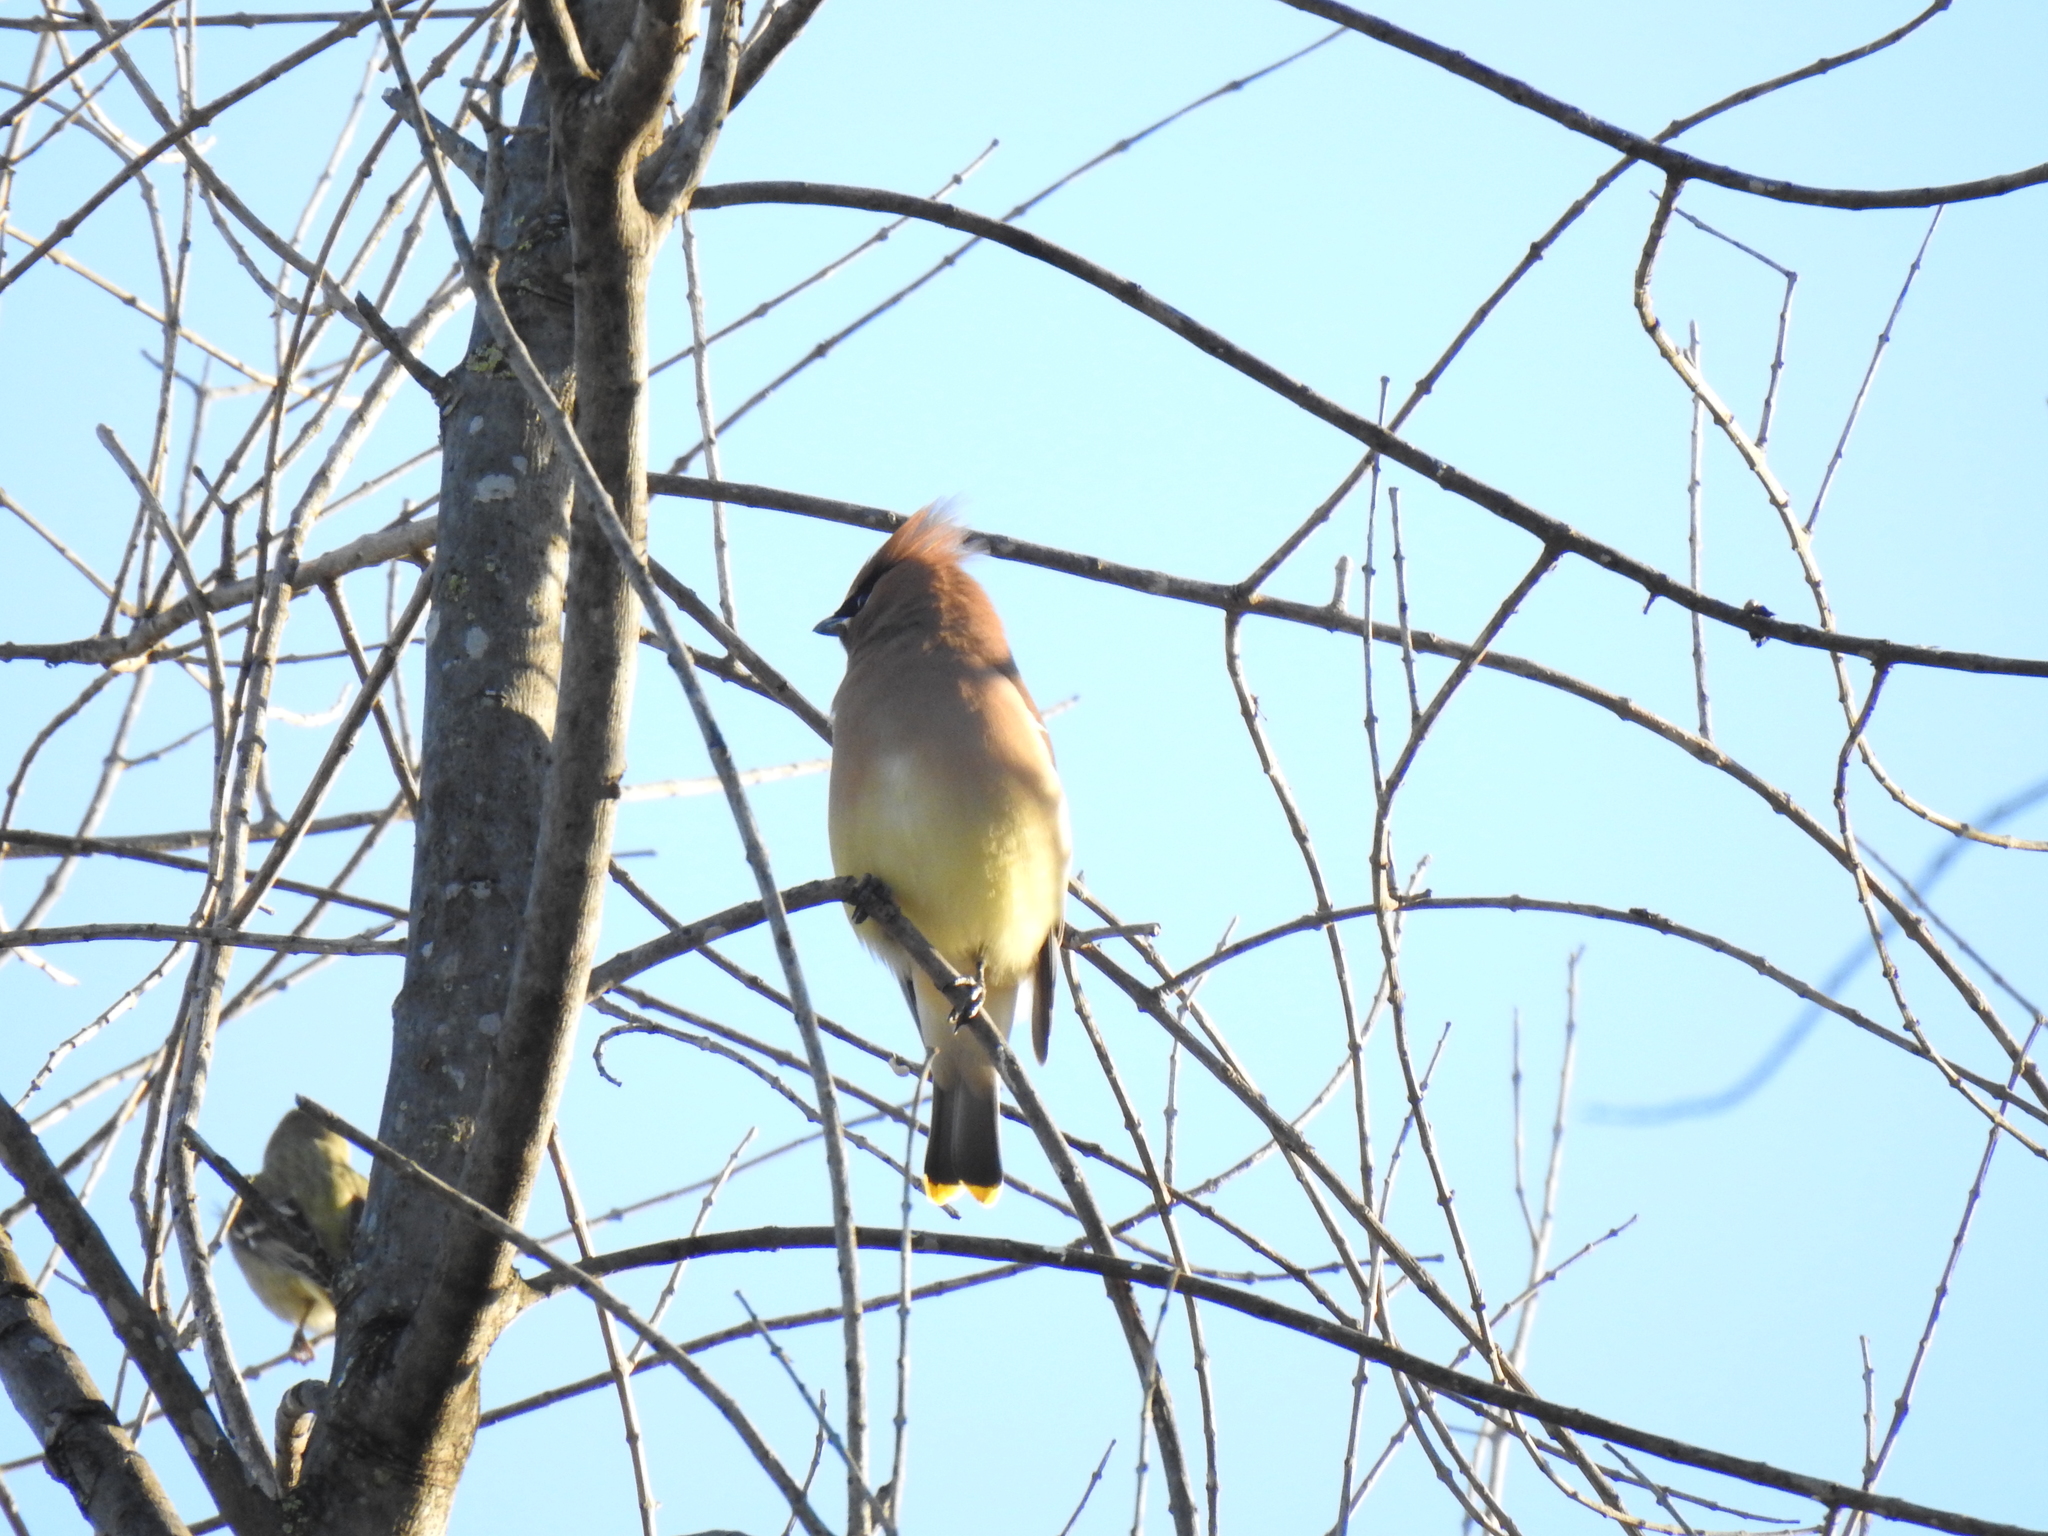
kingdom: Animalia
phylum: Chordata
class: Aves
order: Passeriformes
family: Bombycillidae
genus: Bombycilla
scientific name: Bombycilla cedrorum
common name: Cedar waxwing
